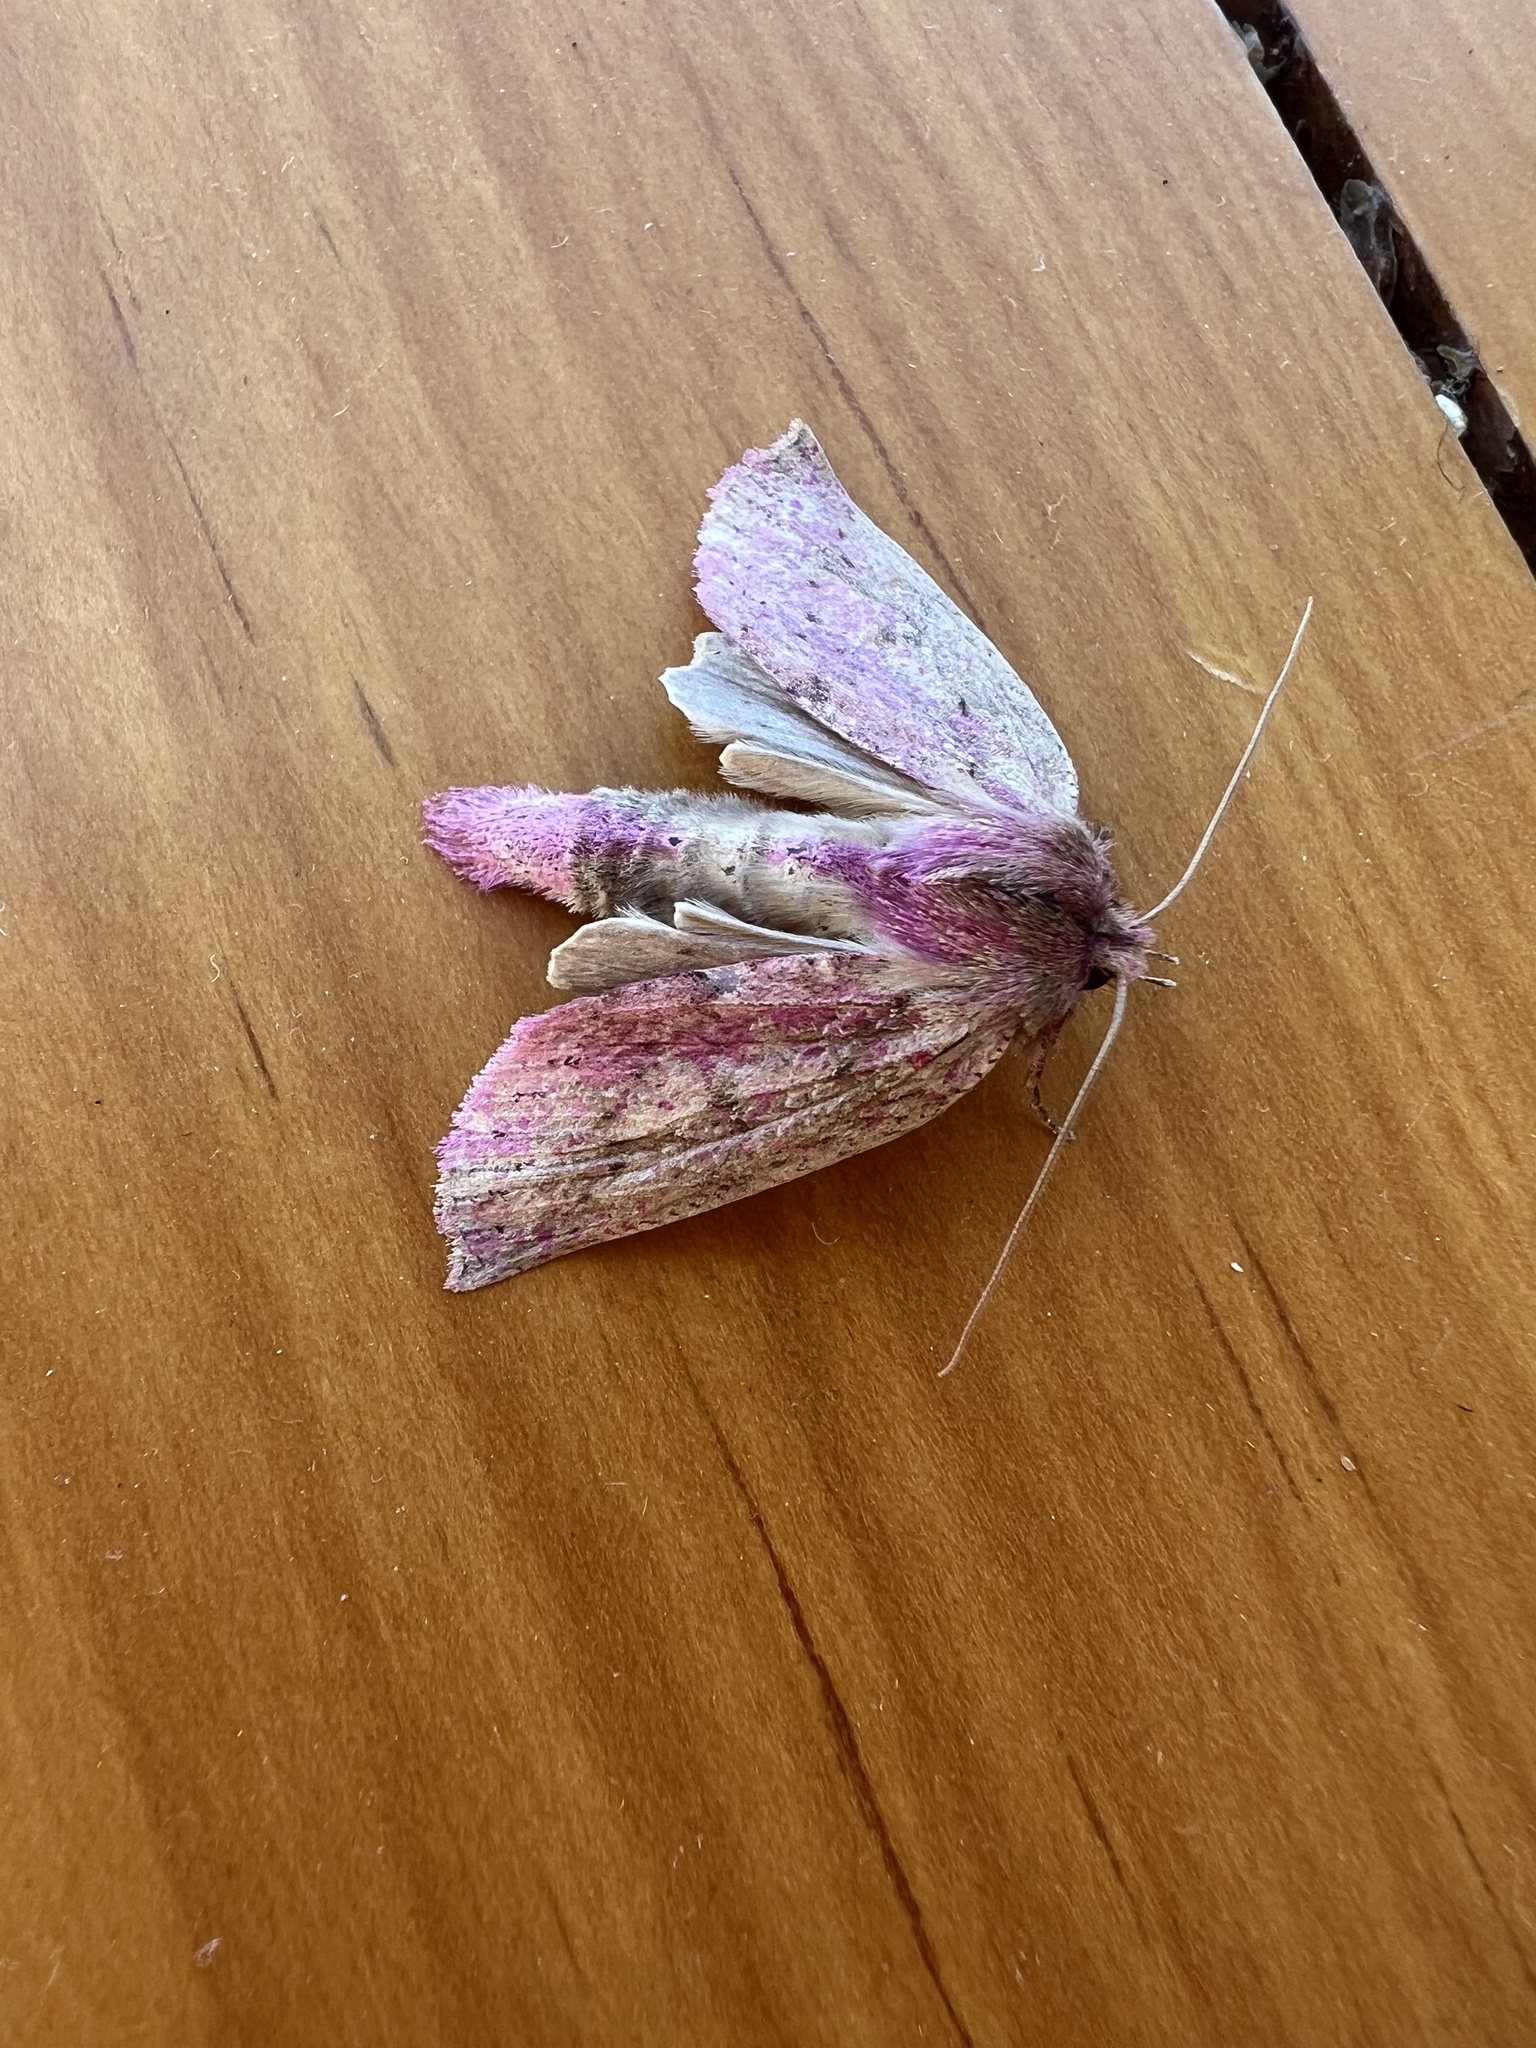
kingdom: Animalia
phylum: Arthropoda
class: Insecta
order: Lepidoptera
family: Geometridae
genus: Declana
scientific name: Declana leptomera
